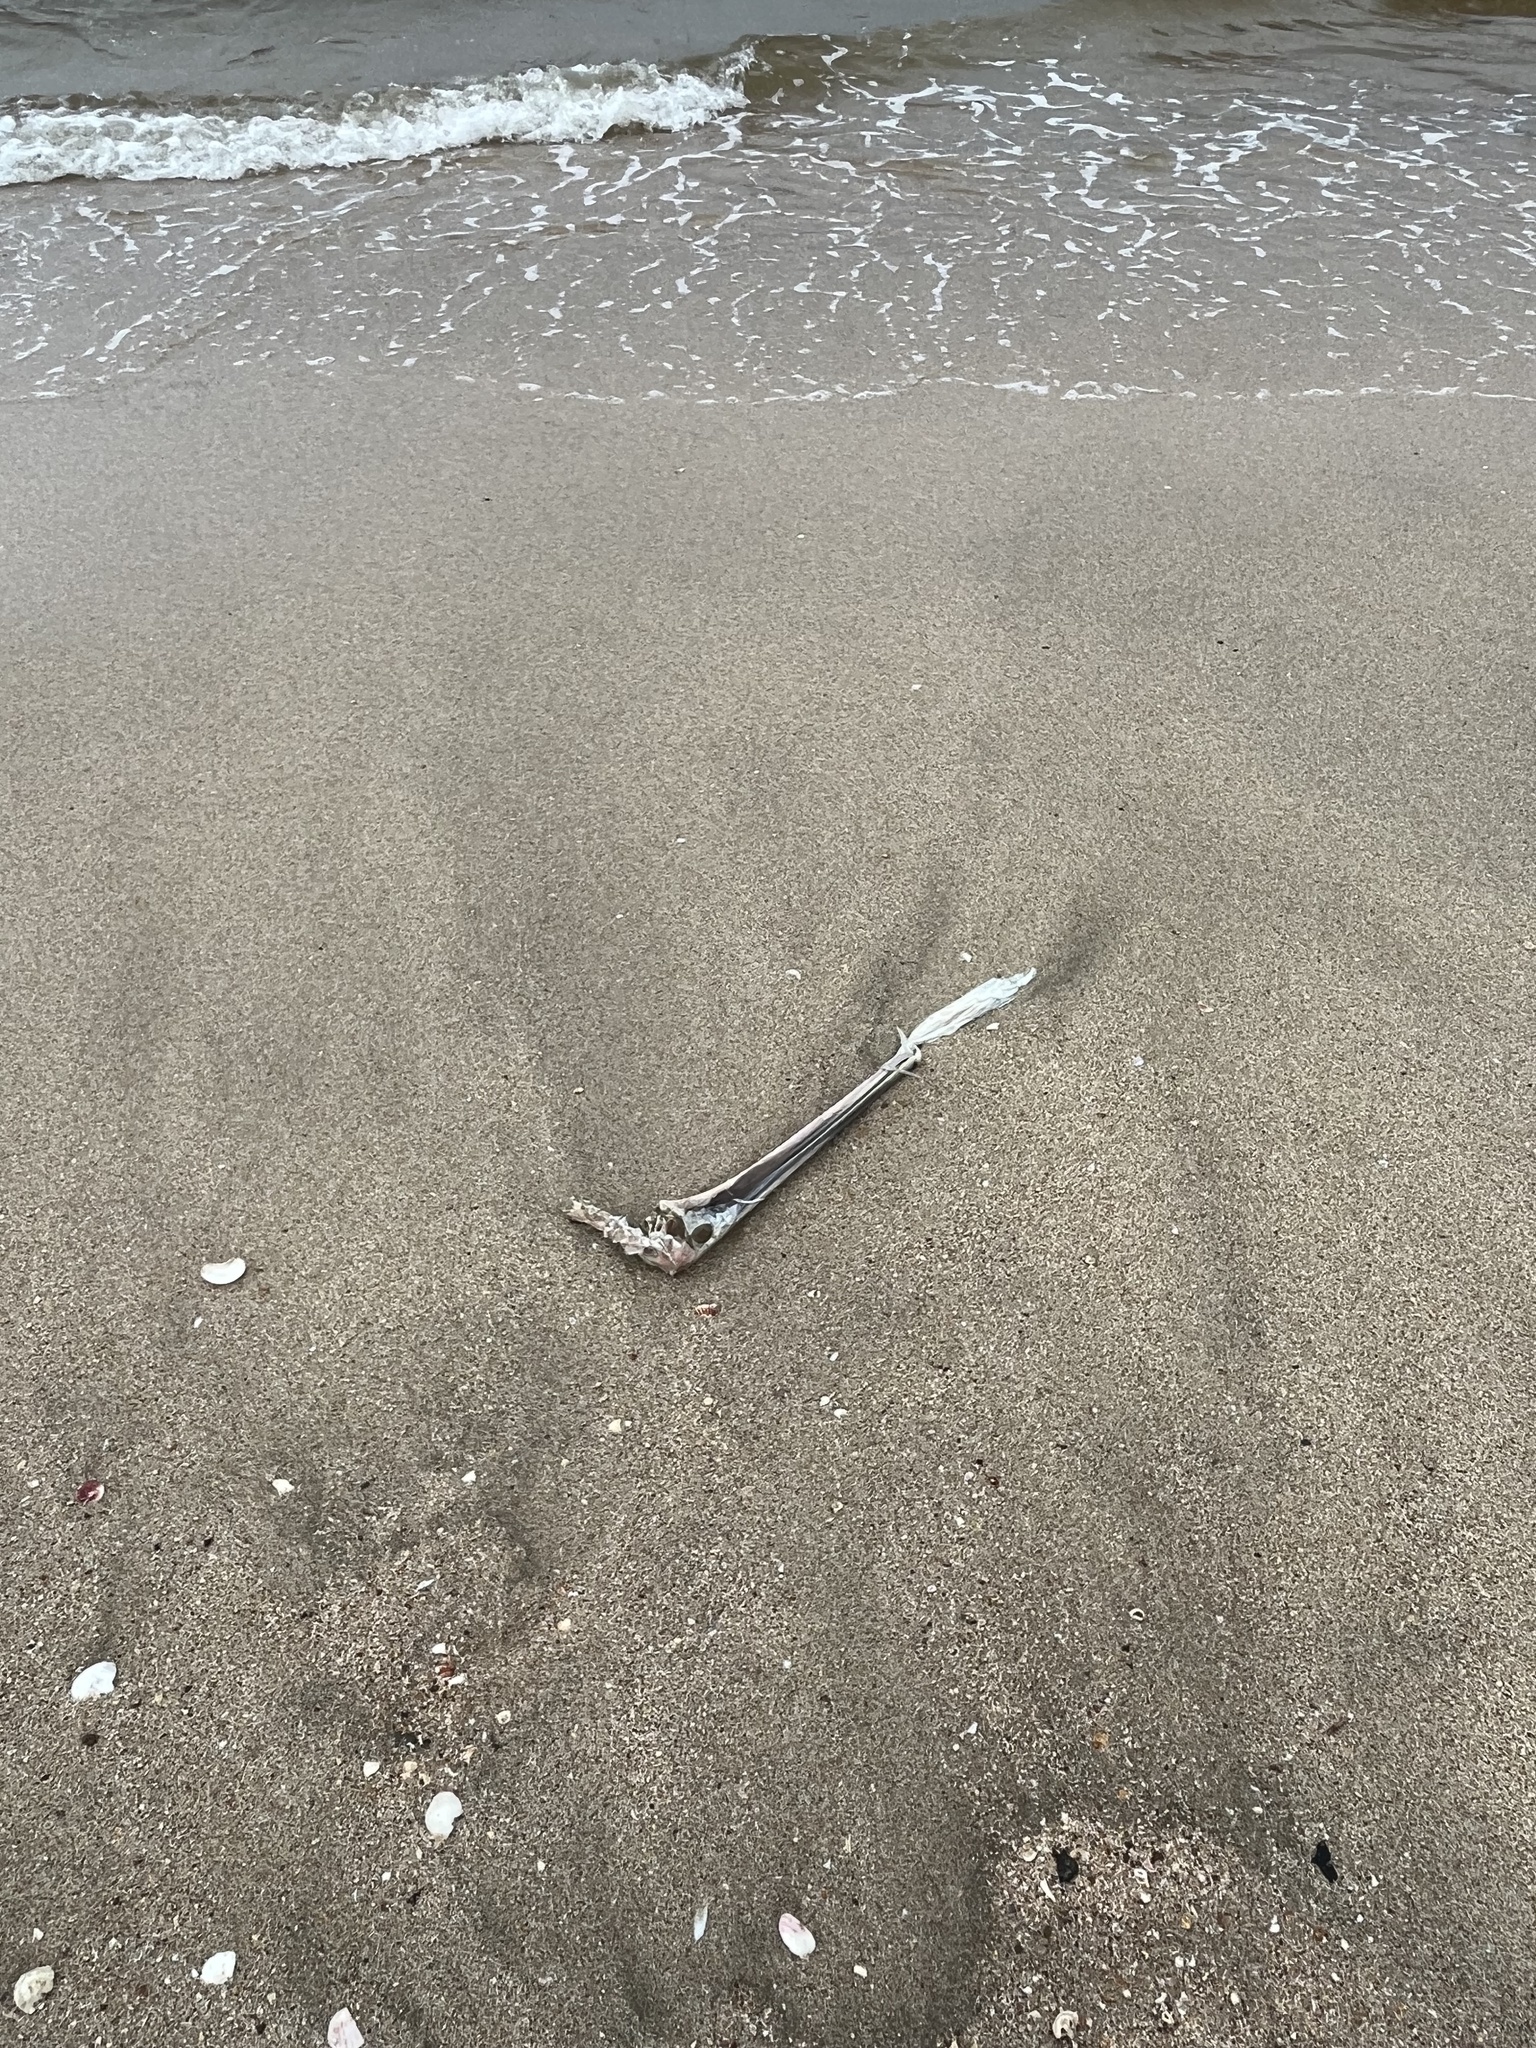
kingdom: Animalia
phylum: Chordata
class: Aves
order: Pelecaniformes
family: Pelecanidae
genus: Pelecanus
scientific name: Pelecanus occidentalis
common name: Brown pelican
